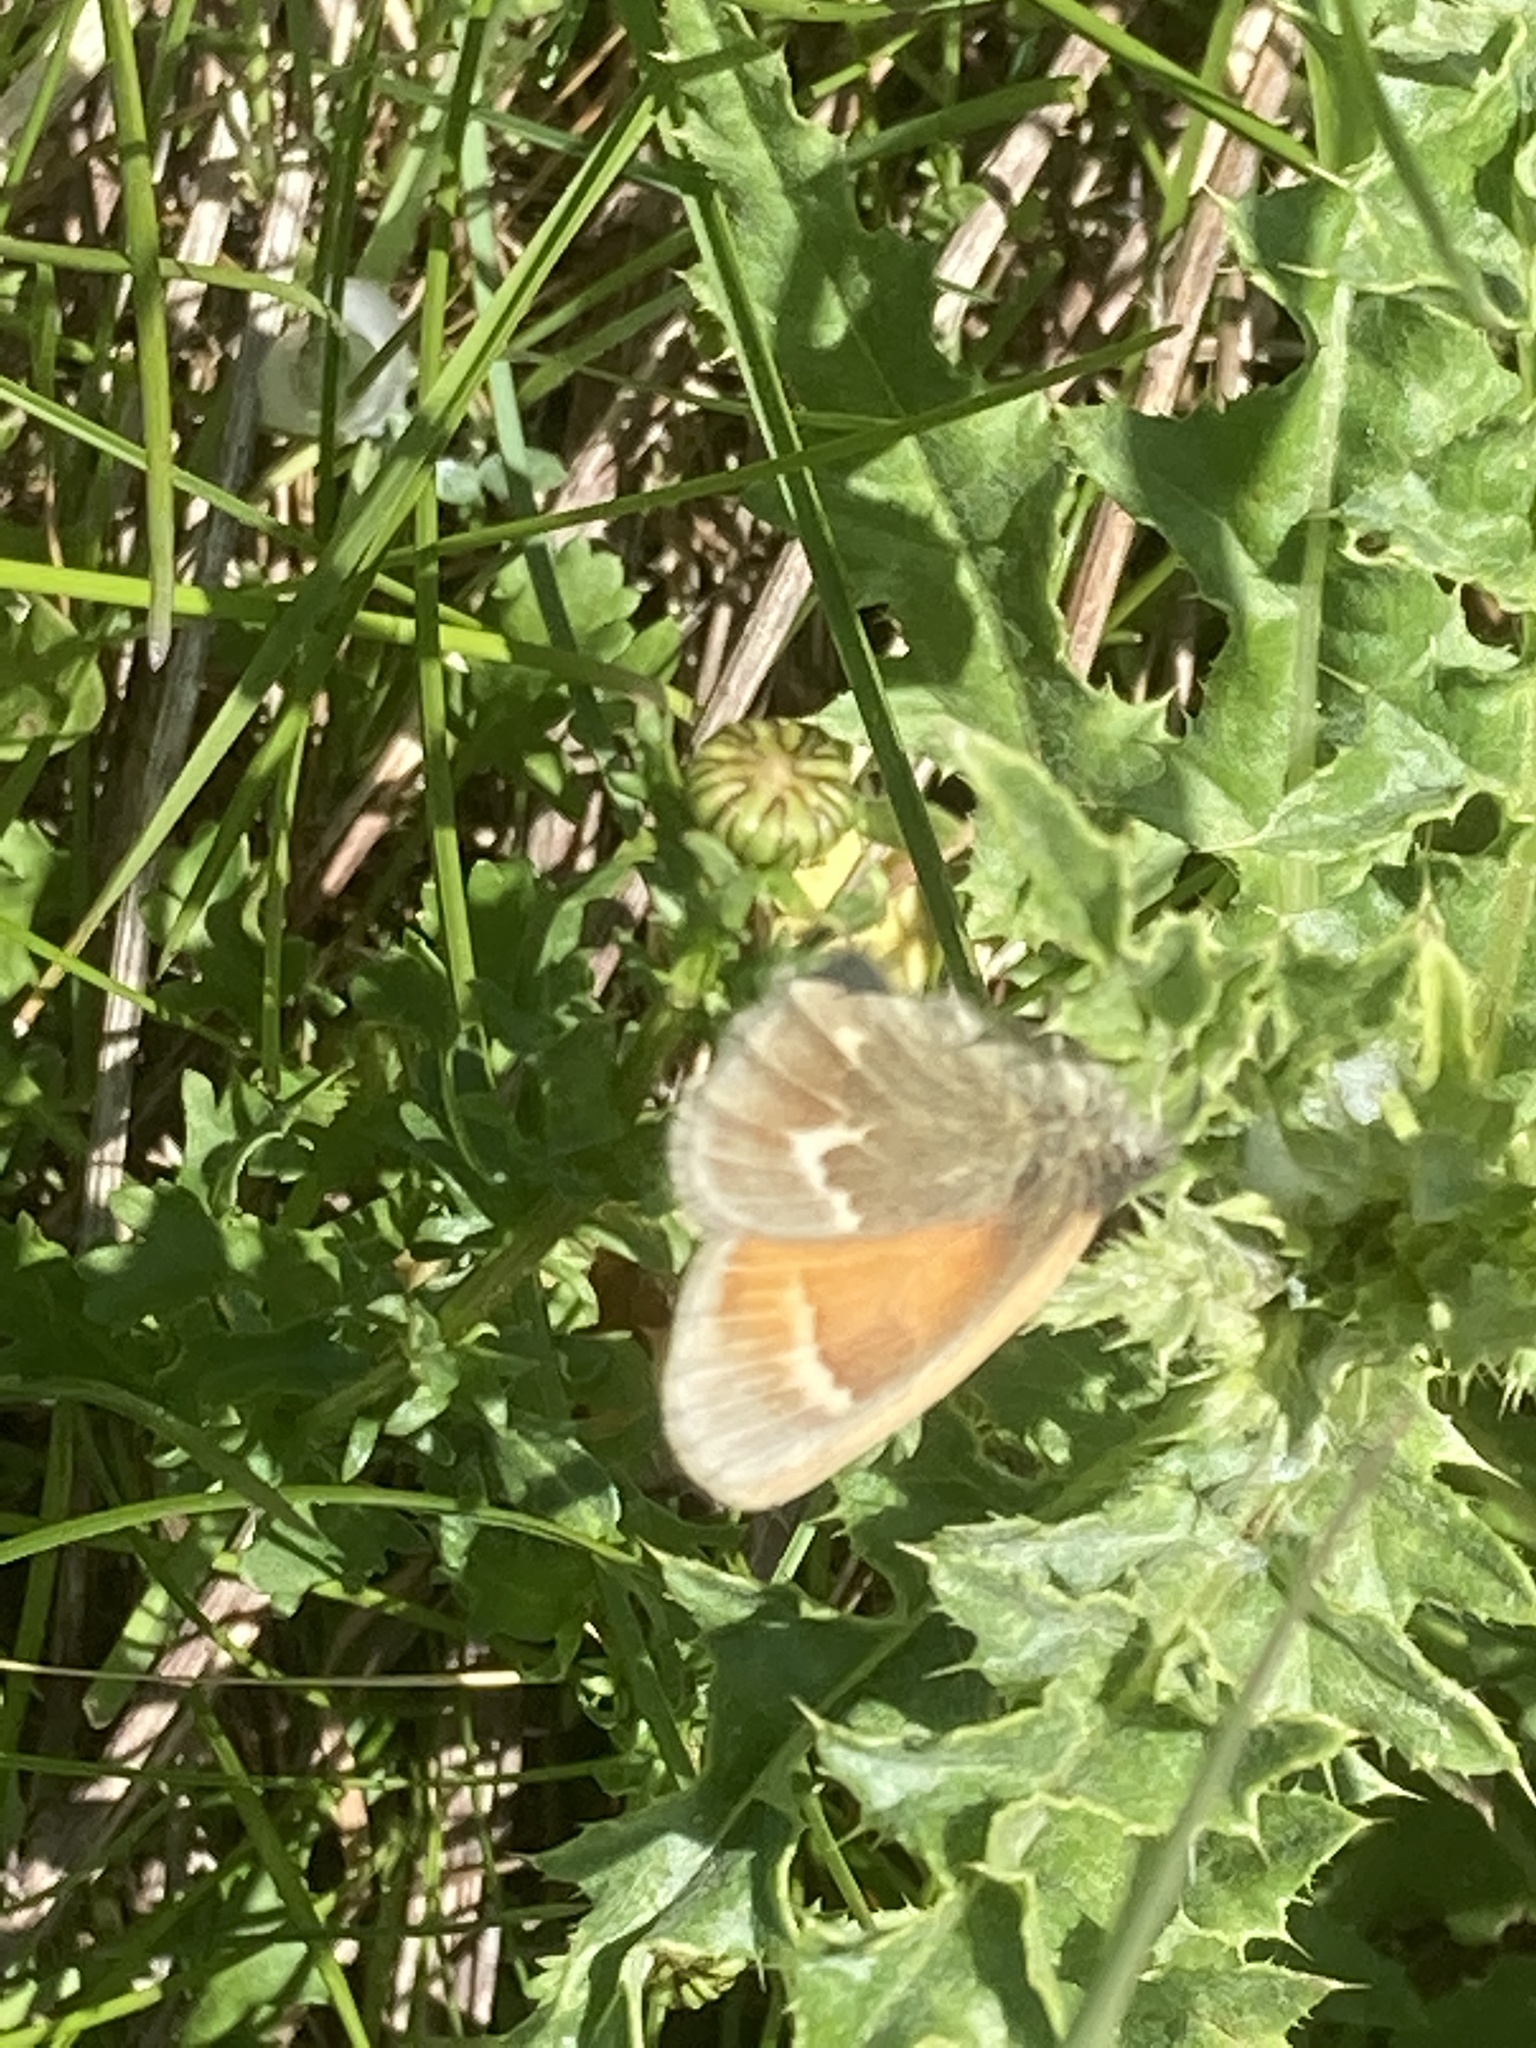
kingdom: Animalia
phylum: Arthropoda
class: Insecta
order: Lepidoptera
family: Nymphalidae
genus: Coenonympha
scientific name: Coenonympha california
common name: Common ringlet
